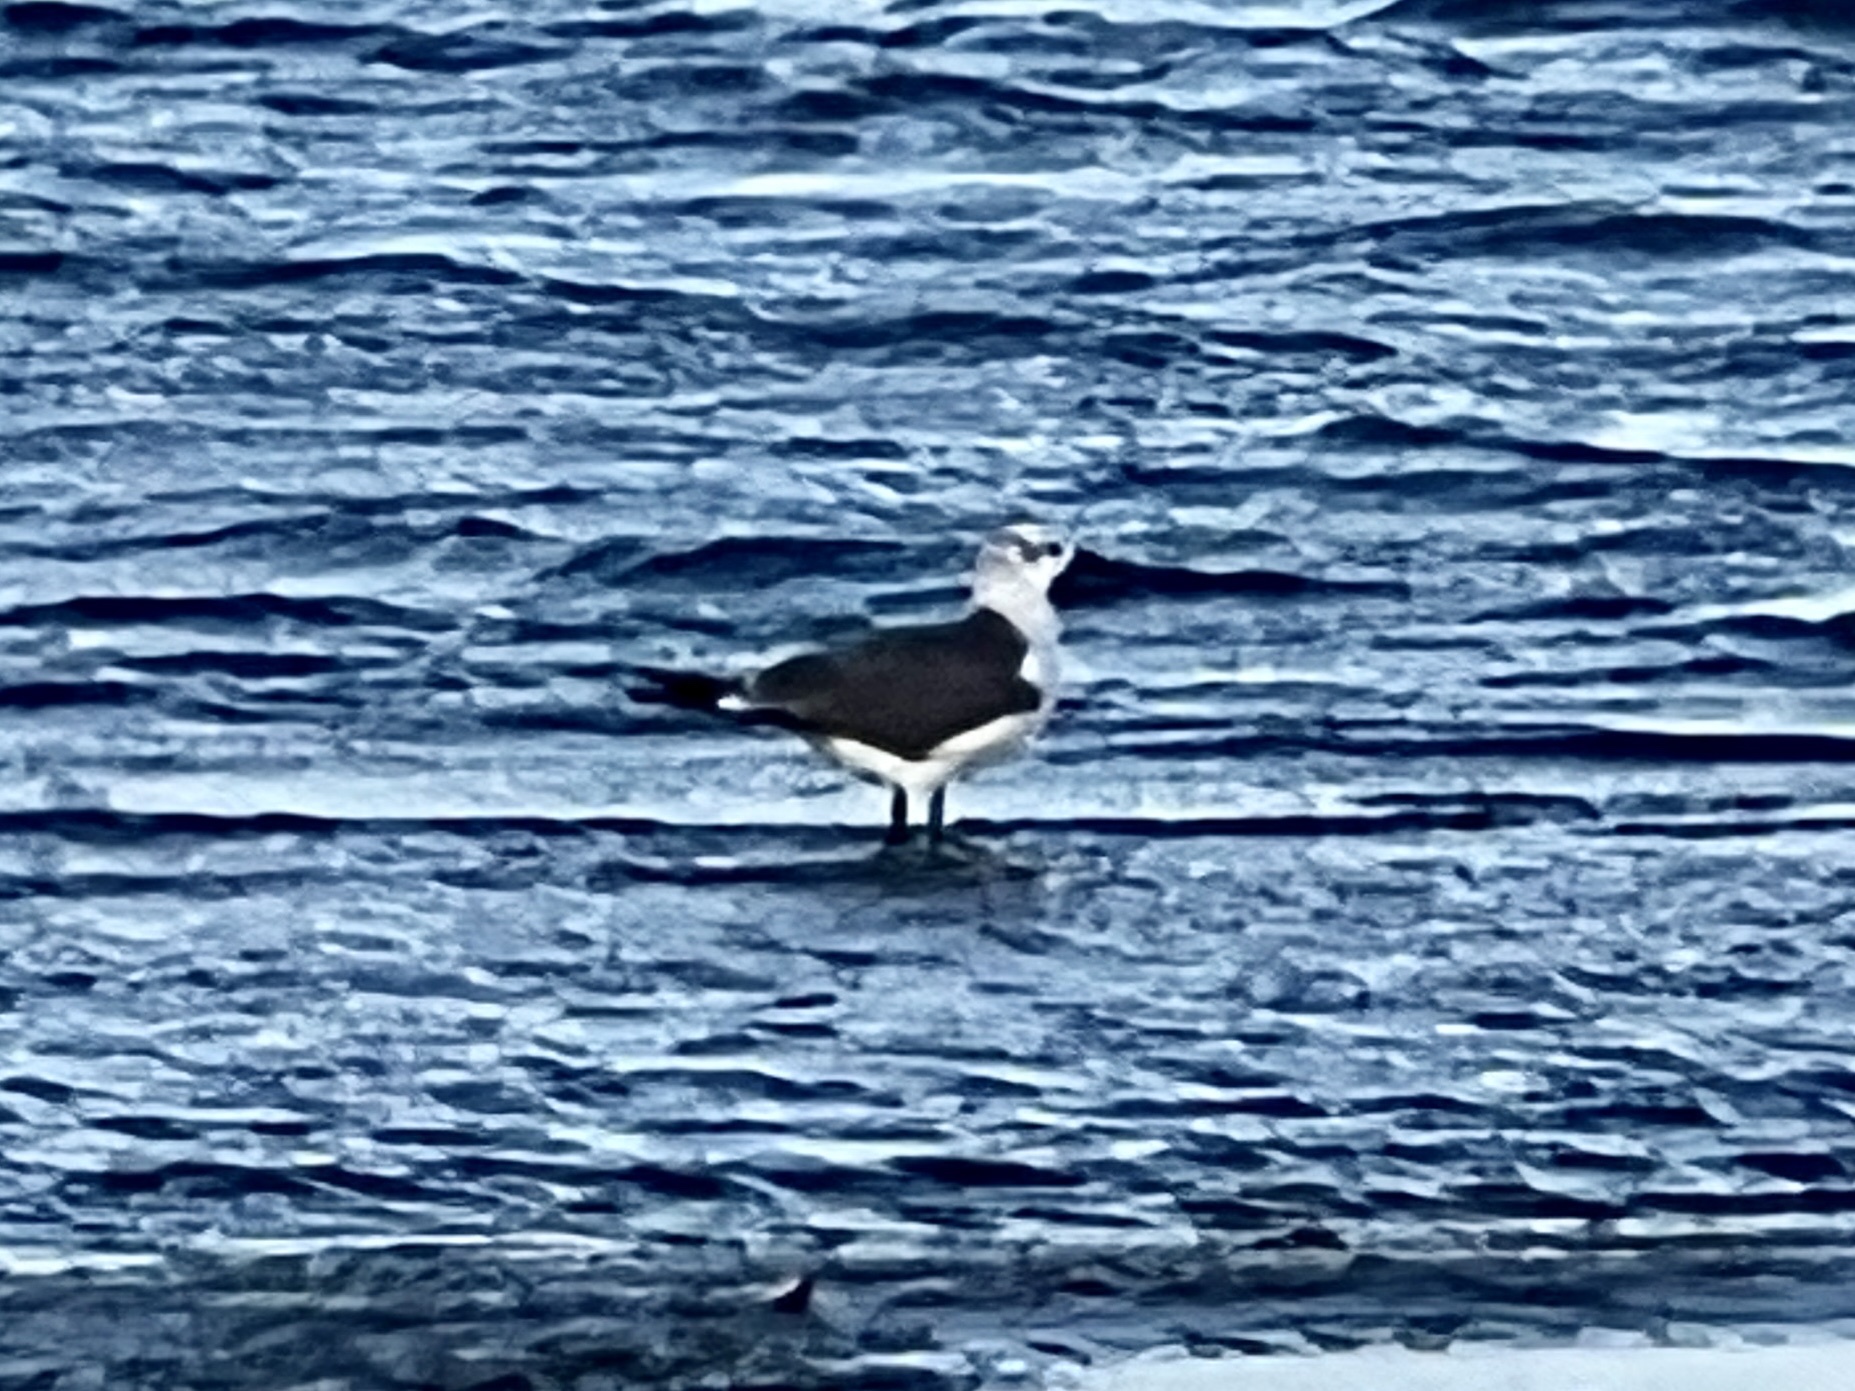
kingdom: Animalia
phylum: Chordata
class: Aves
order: Charadriiformes
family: Laridae
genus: Leucophaeus
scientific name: Leucophaeus atricilla
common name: Laughing gull
